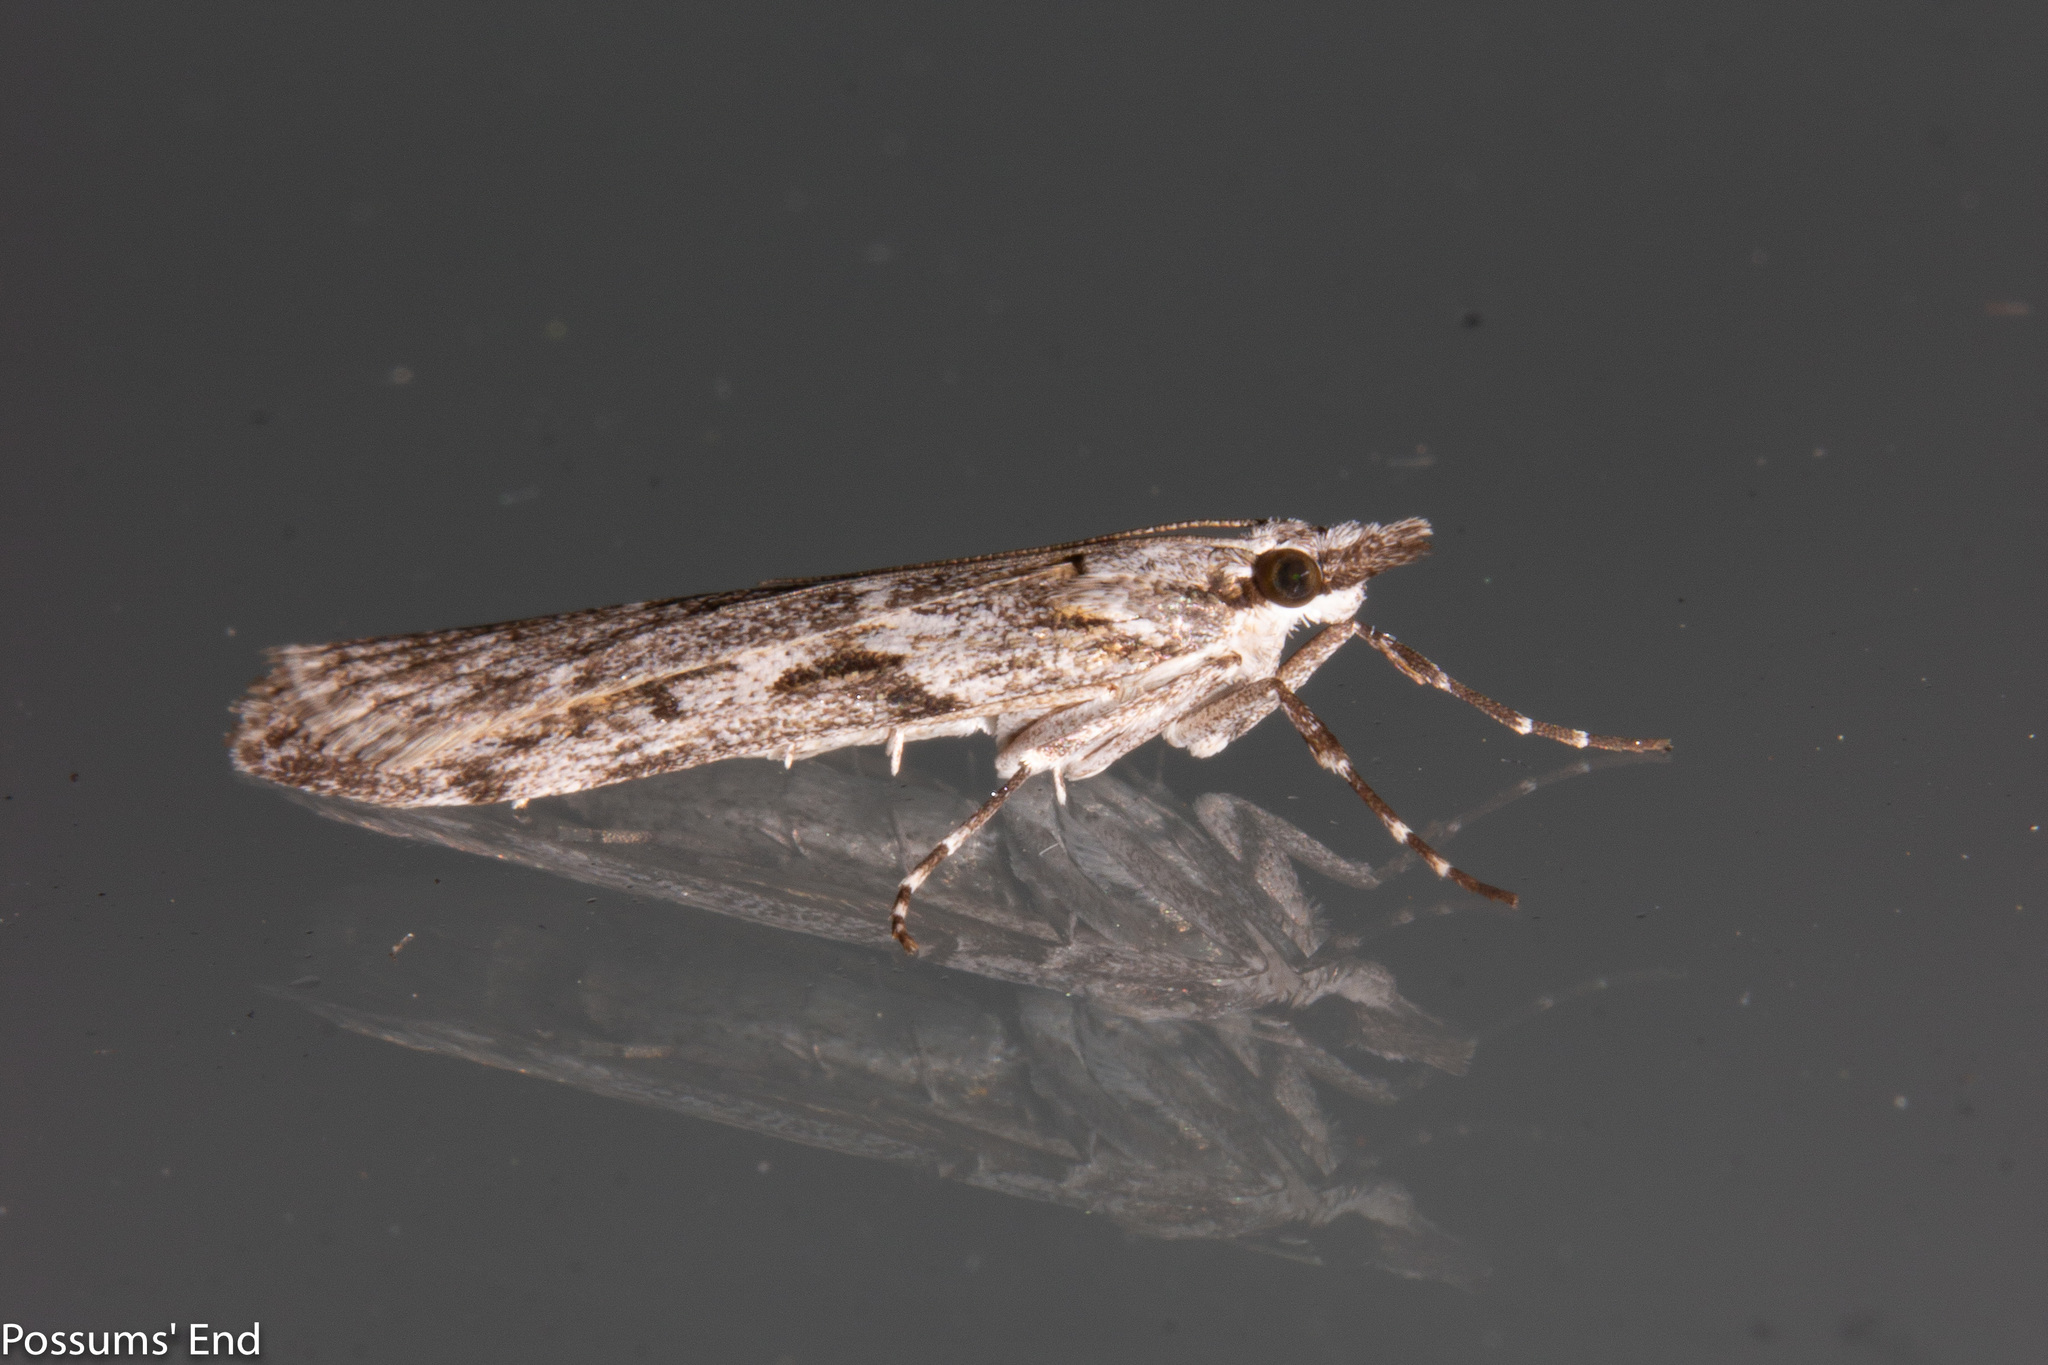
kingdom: Animalia
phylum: Arthropoda
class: Insecta
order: Lepidoptera
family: Crambidae
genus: Scoparia
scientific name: Scoparia halopis
